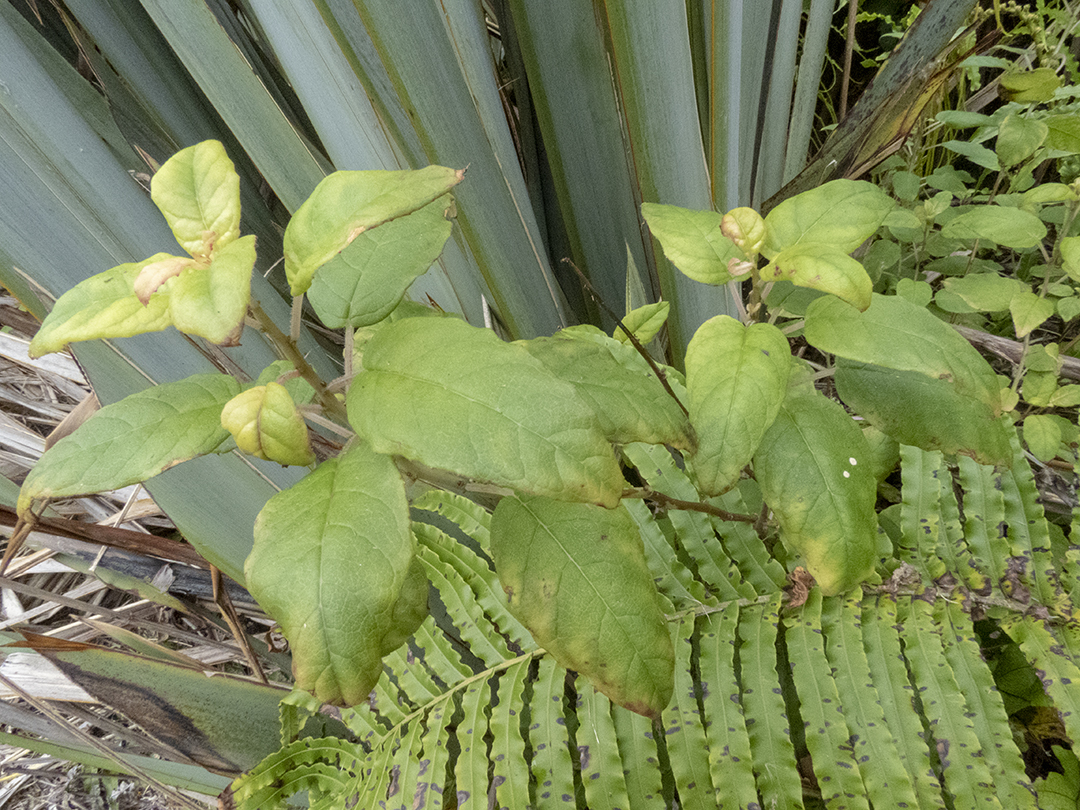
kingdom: Plantae
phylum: Tracheophyta
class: Magnoliopsida
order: Myrtales
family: Onagraceae
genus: Fuchsia
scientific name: Fuchsia colensoi
